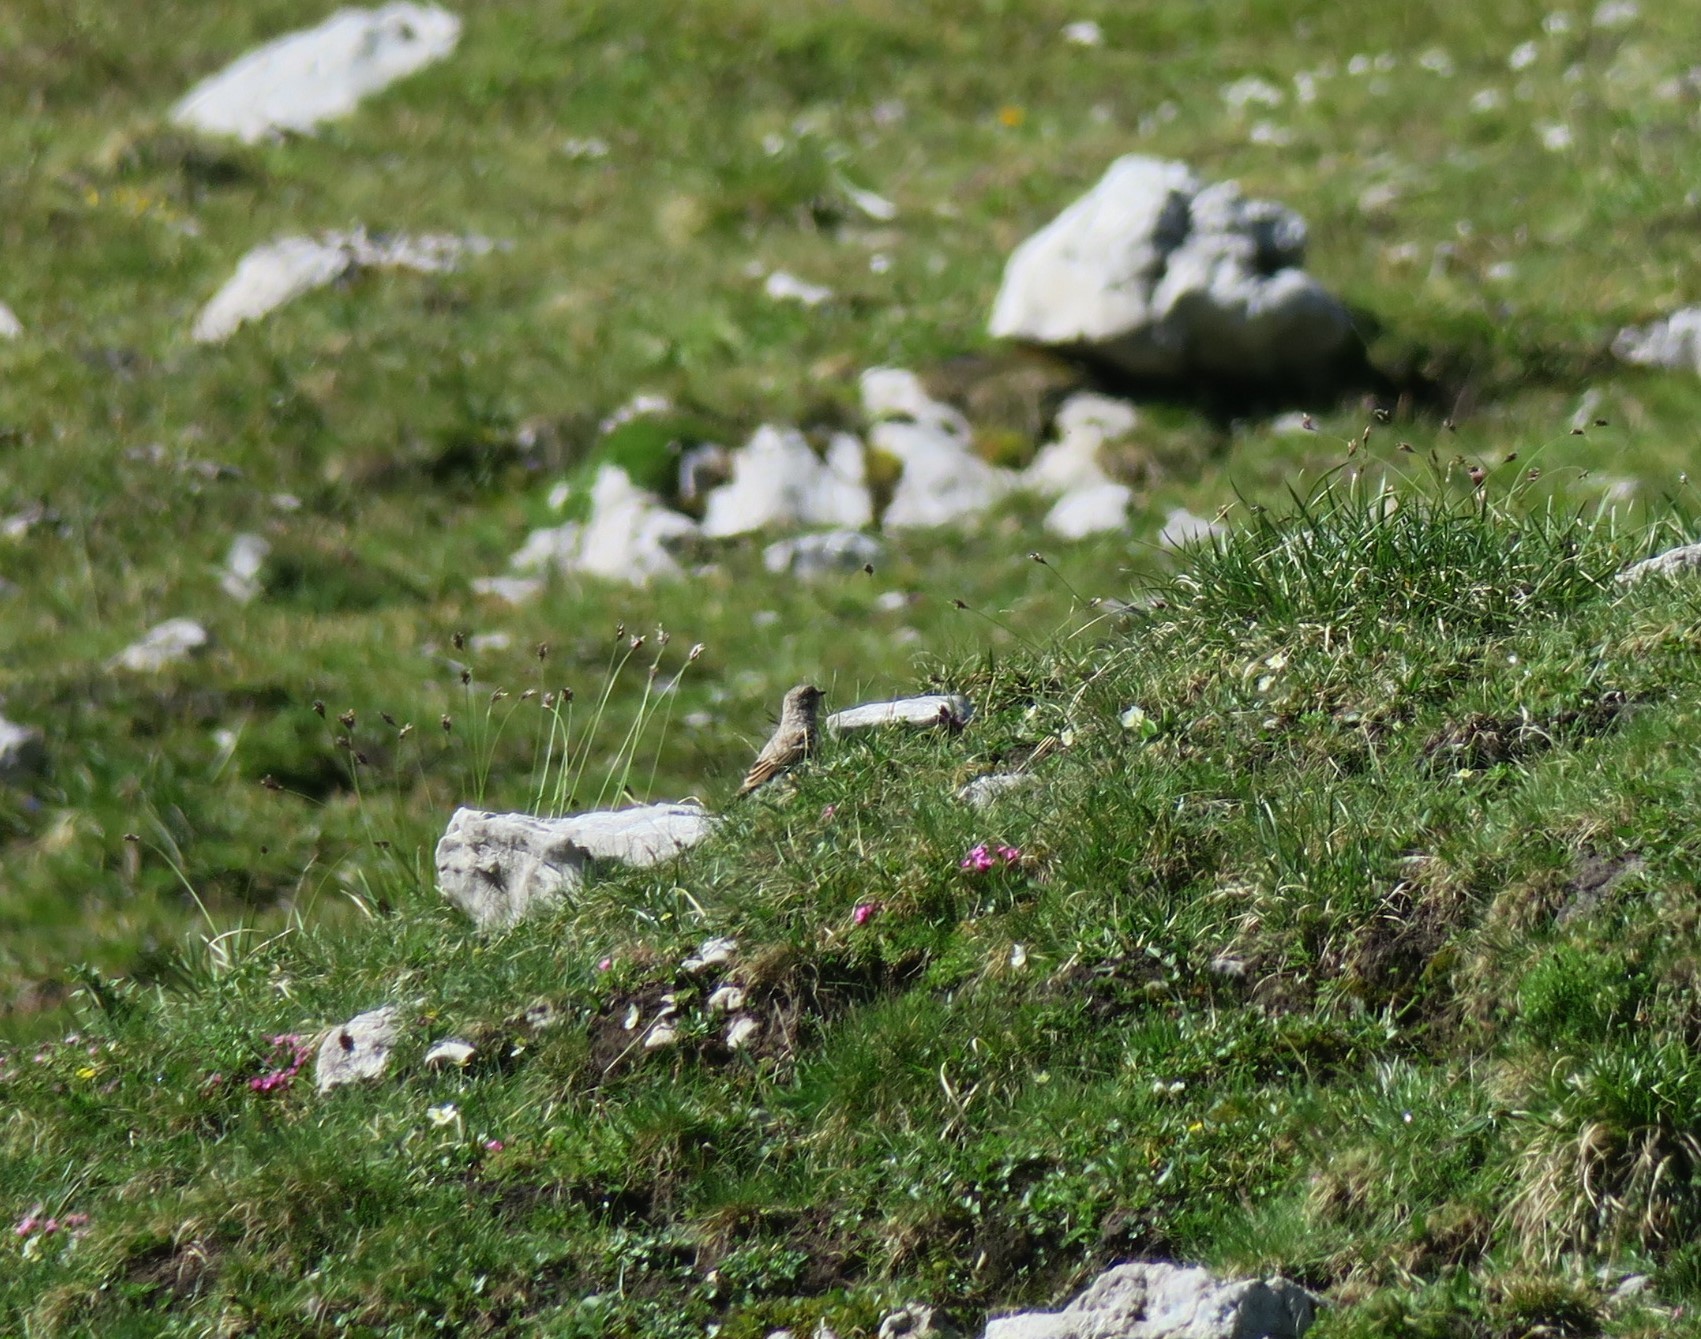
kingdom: Animalia
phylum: Chordata
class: Aves
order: Passeriformes
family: Muscicapidae
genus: Oenanthe
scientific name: Oenanthe oenanthe
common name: Northern wheatear
